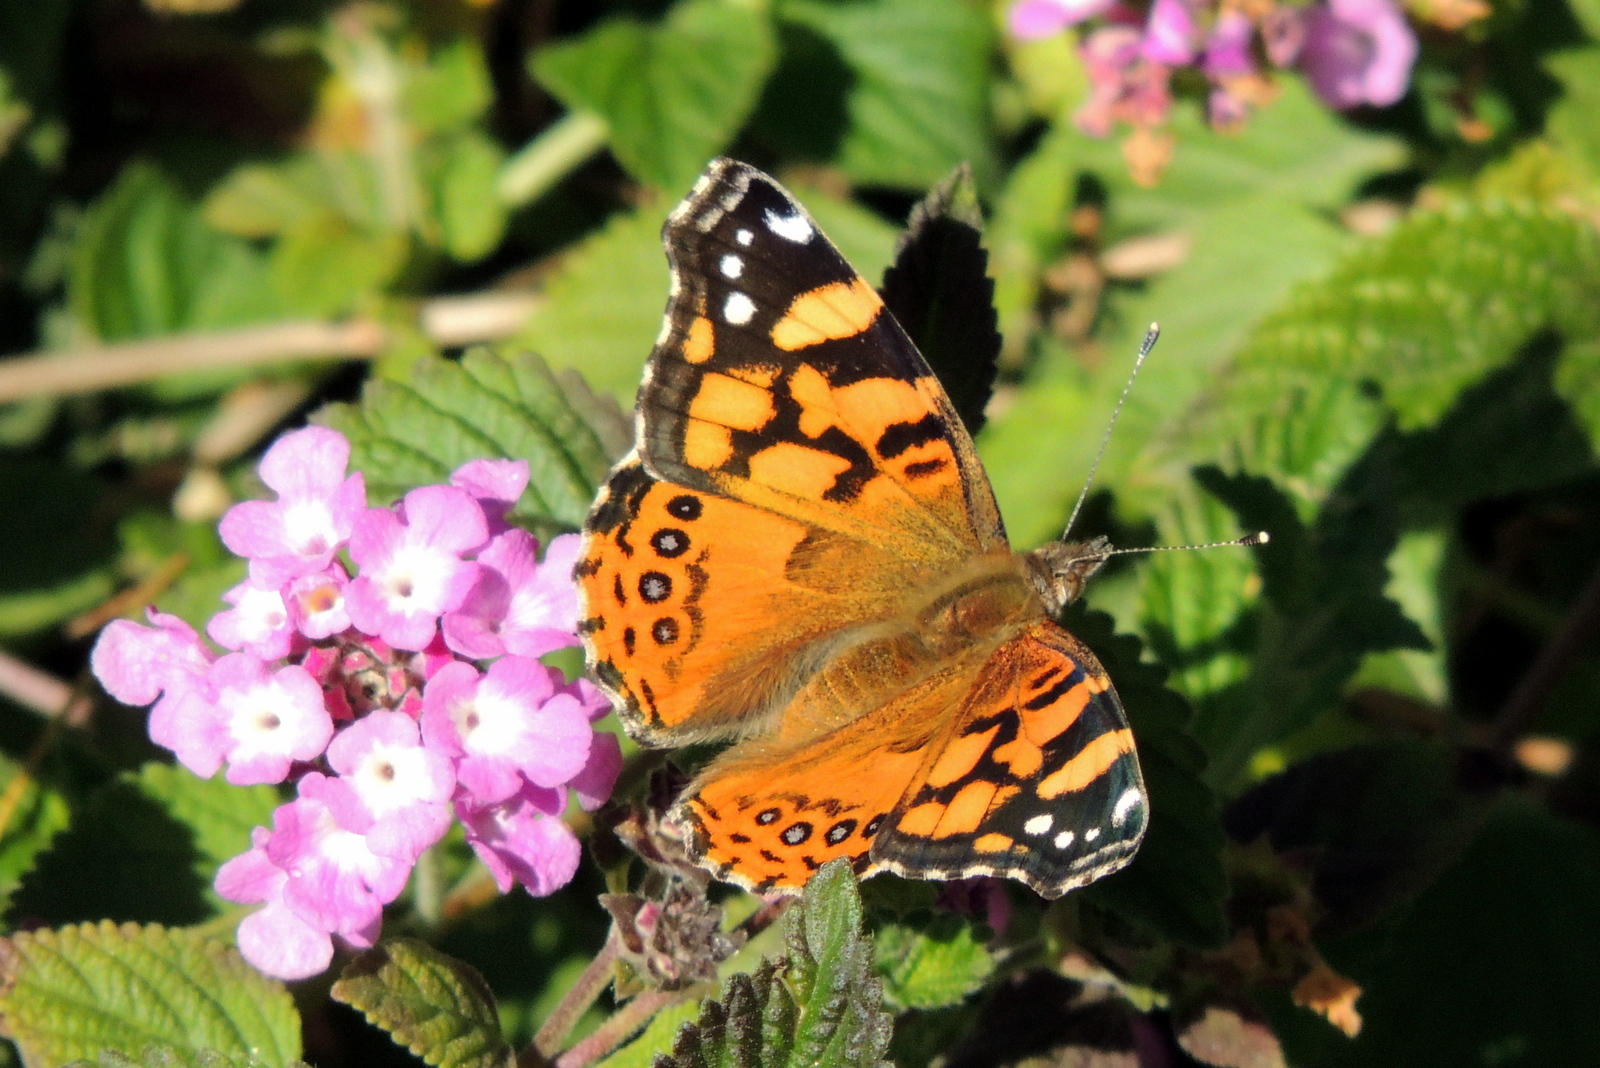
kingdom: Animalia
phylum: Arthropoda
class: Insecta
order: Lepidoptera
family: Nymphalidae
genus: Vanessa
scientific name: Vanessa annabella
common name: West coast lady
